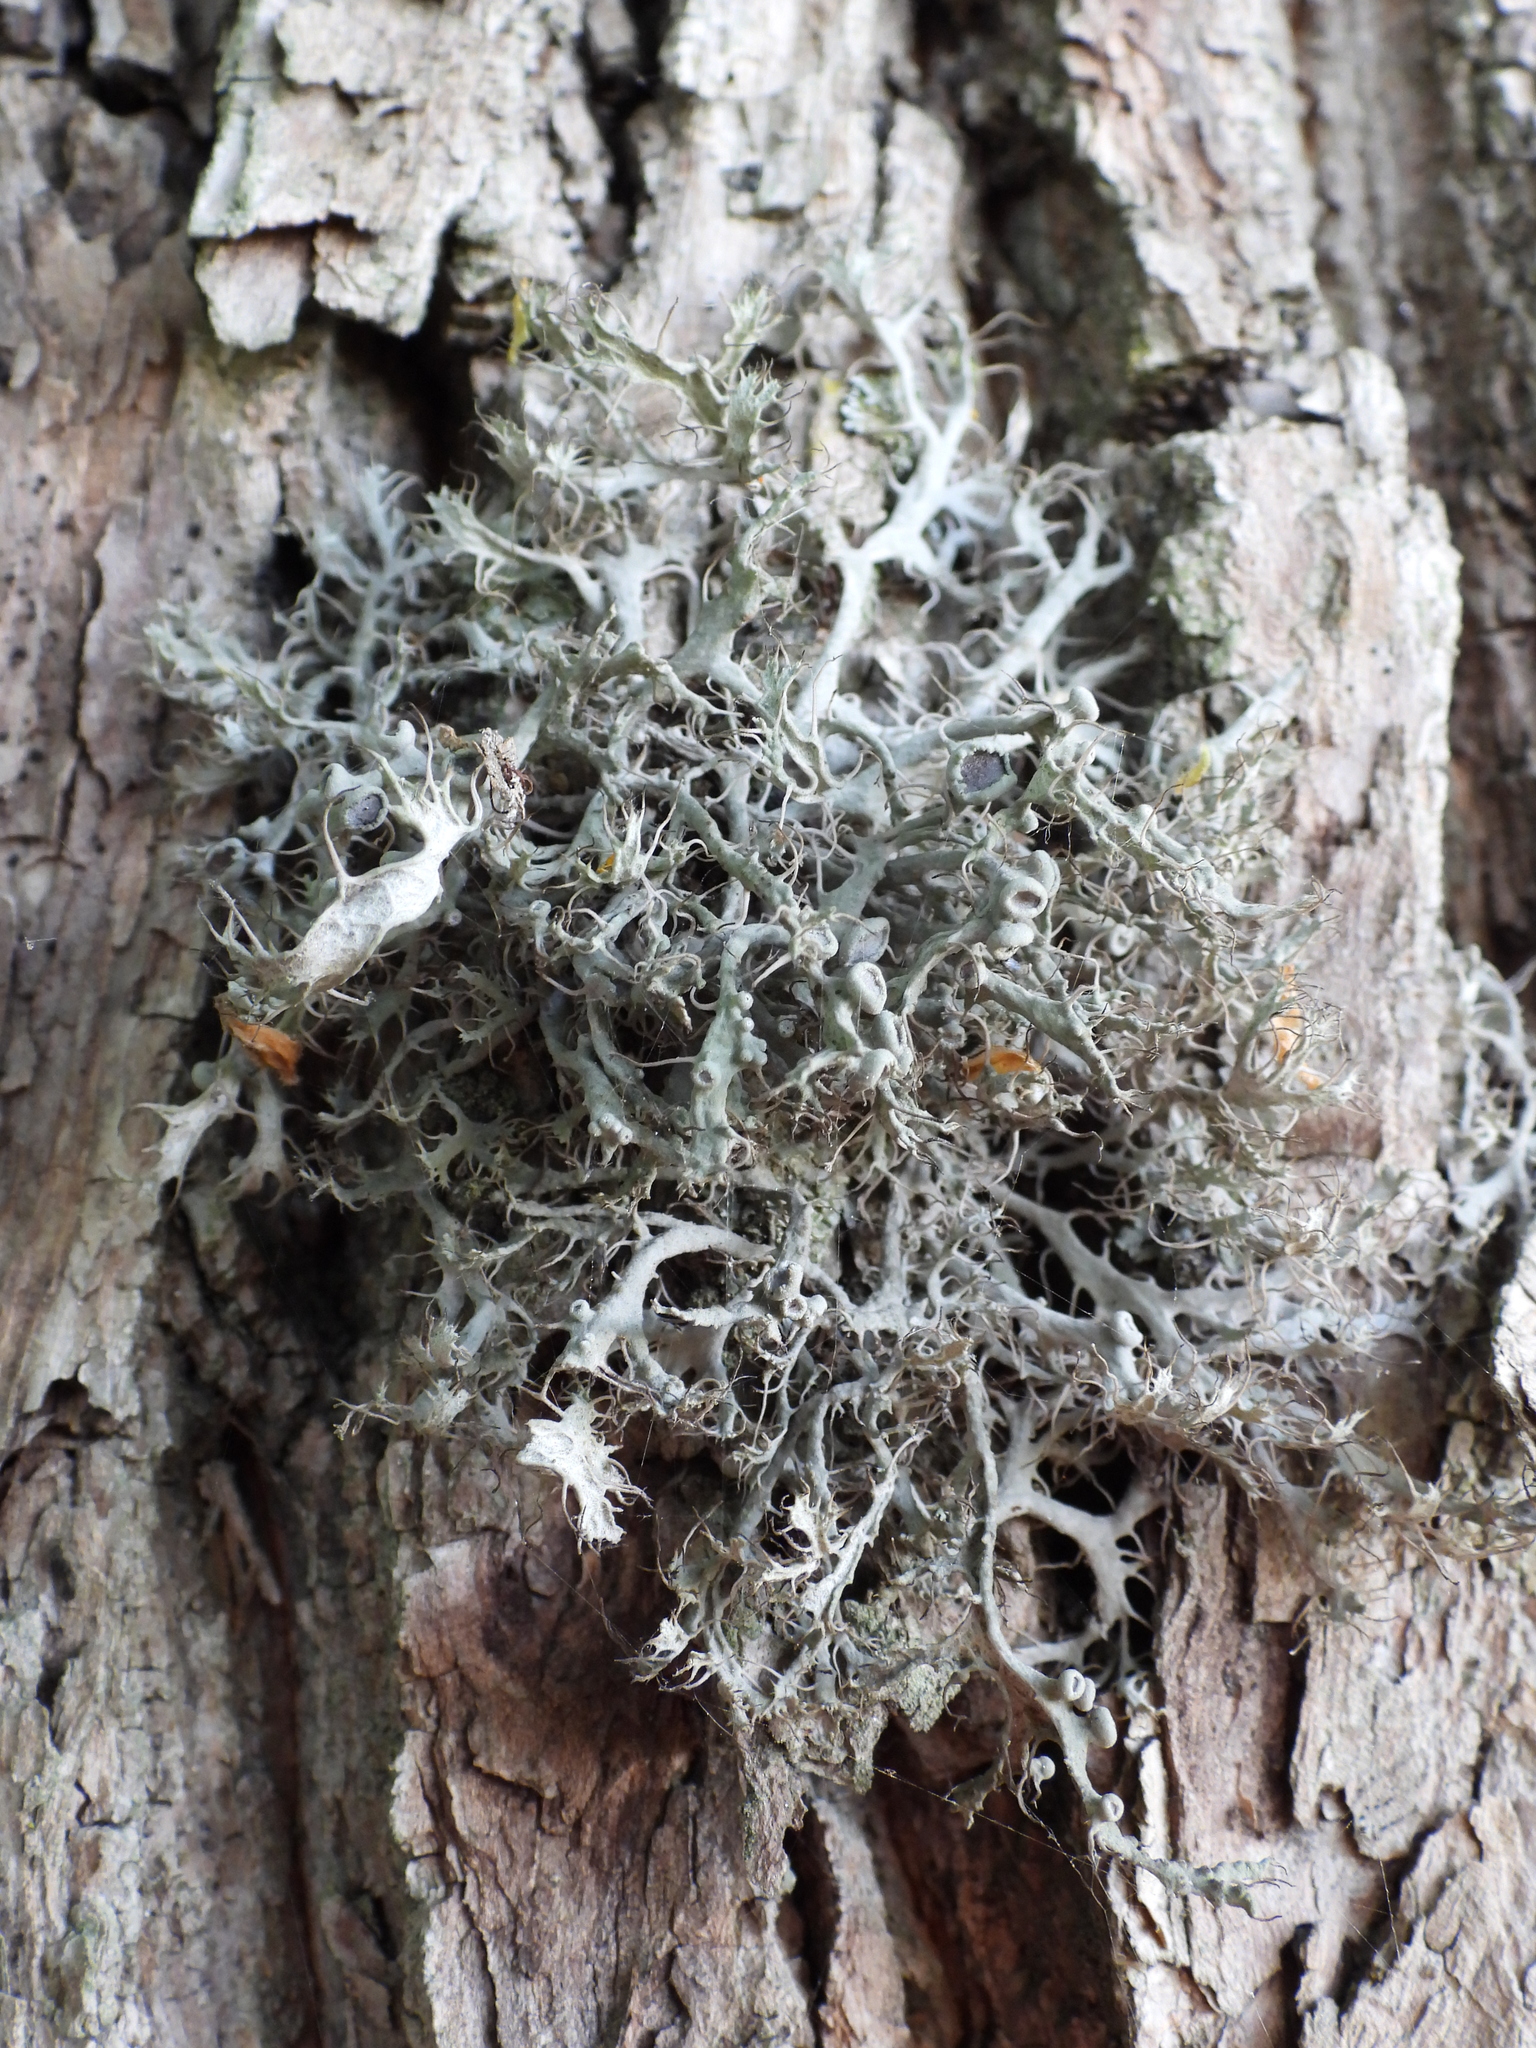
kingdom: Fungi
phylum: Ascomycota
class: Lecanoromycetes
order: Caliciales
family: Physciaceae
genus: Anaptychia
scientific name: Anaptychia ciliaris
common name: Great ciliated lichen
